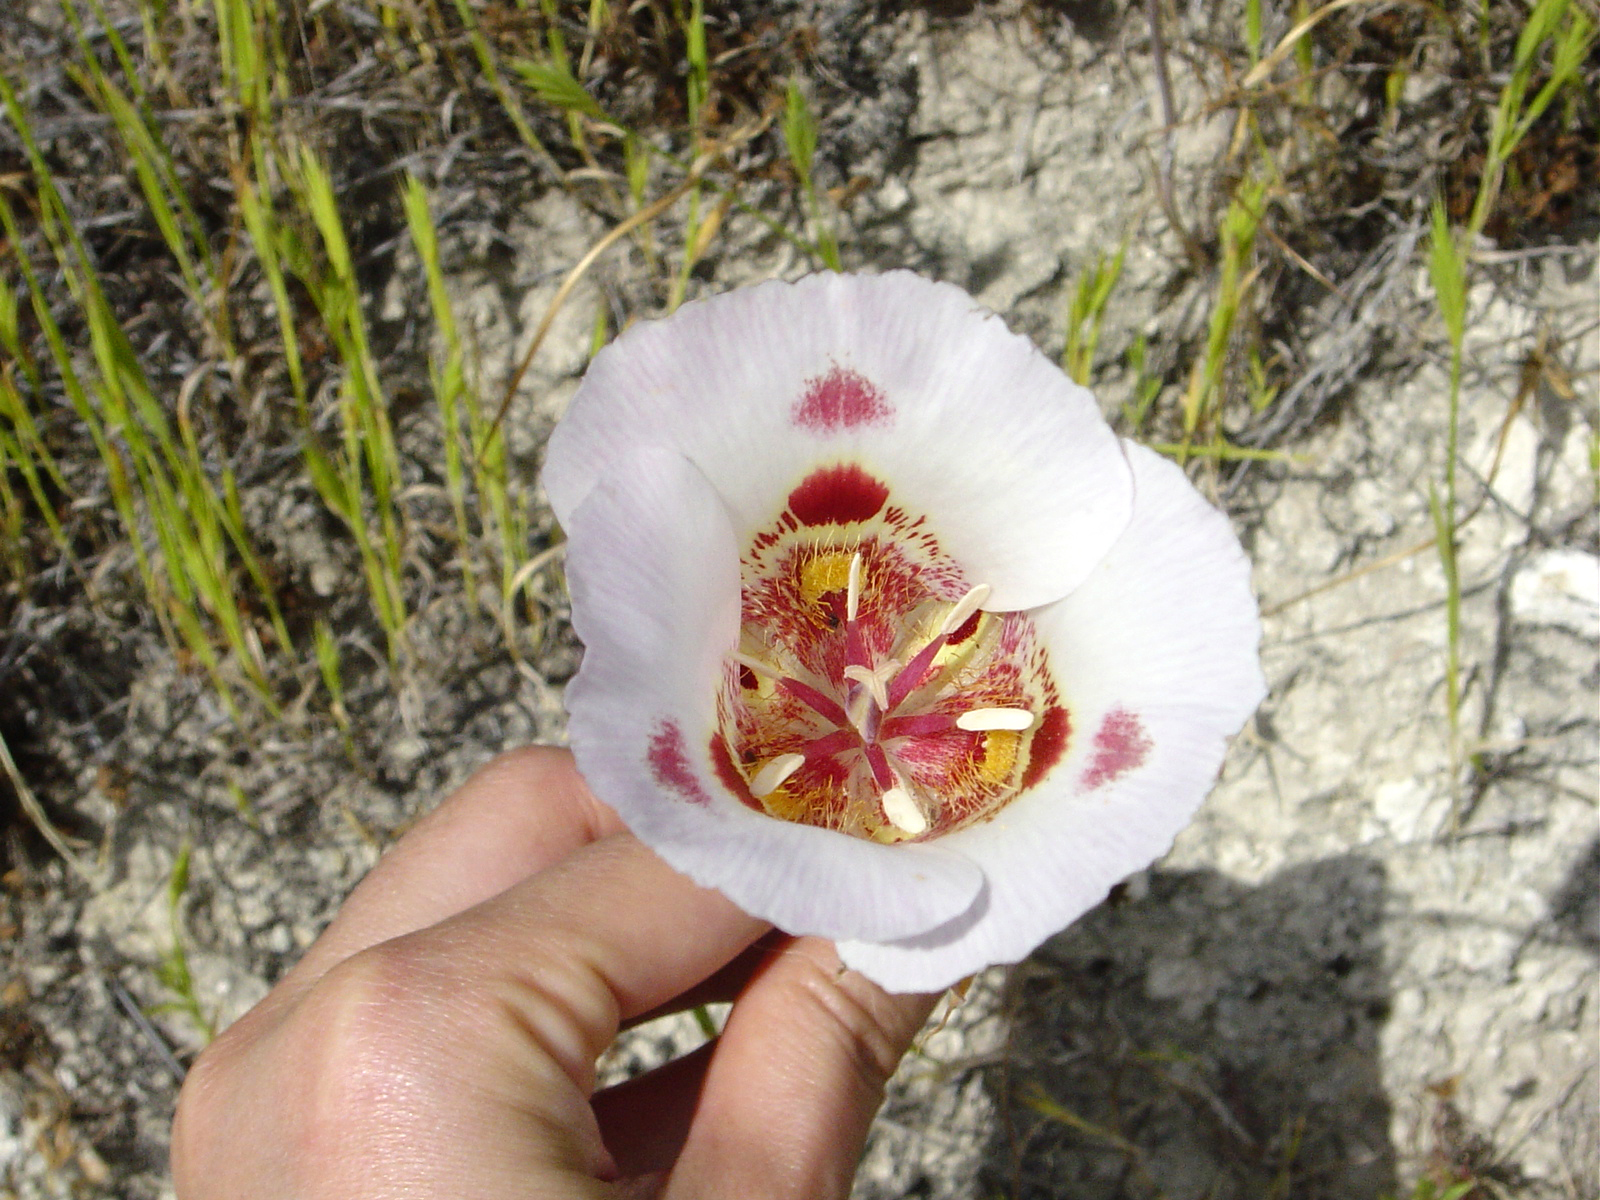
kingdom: Plantae
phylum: Tracheophyta
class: Liliopsida
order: Liliales
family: Liliaceae
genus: Calochortus
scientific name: Calochortus venustus
